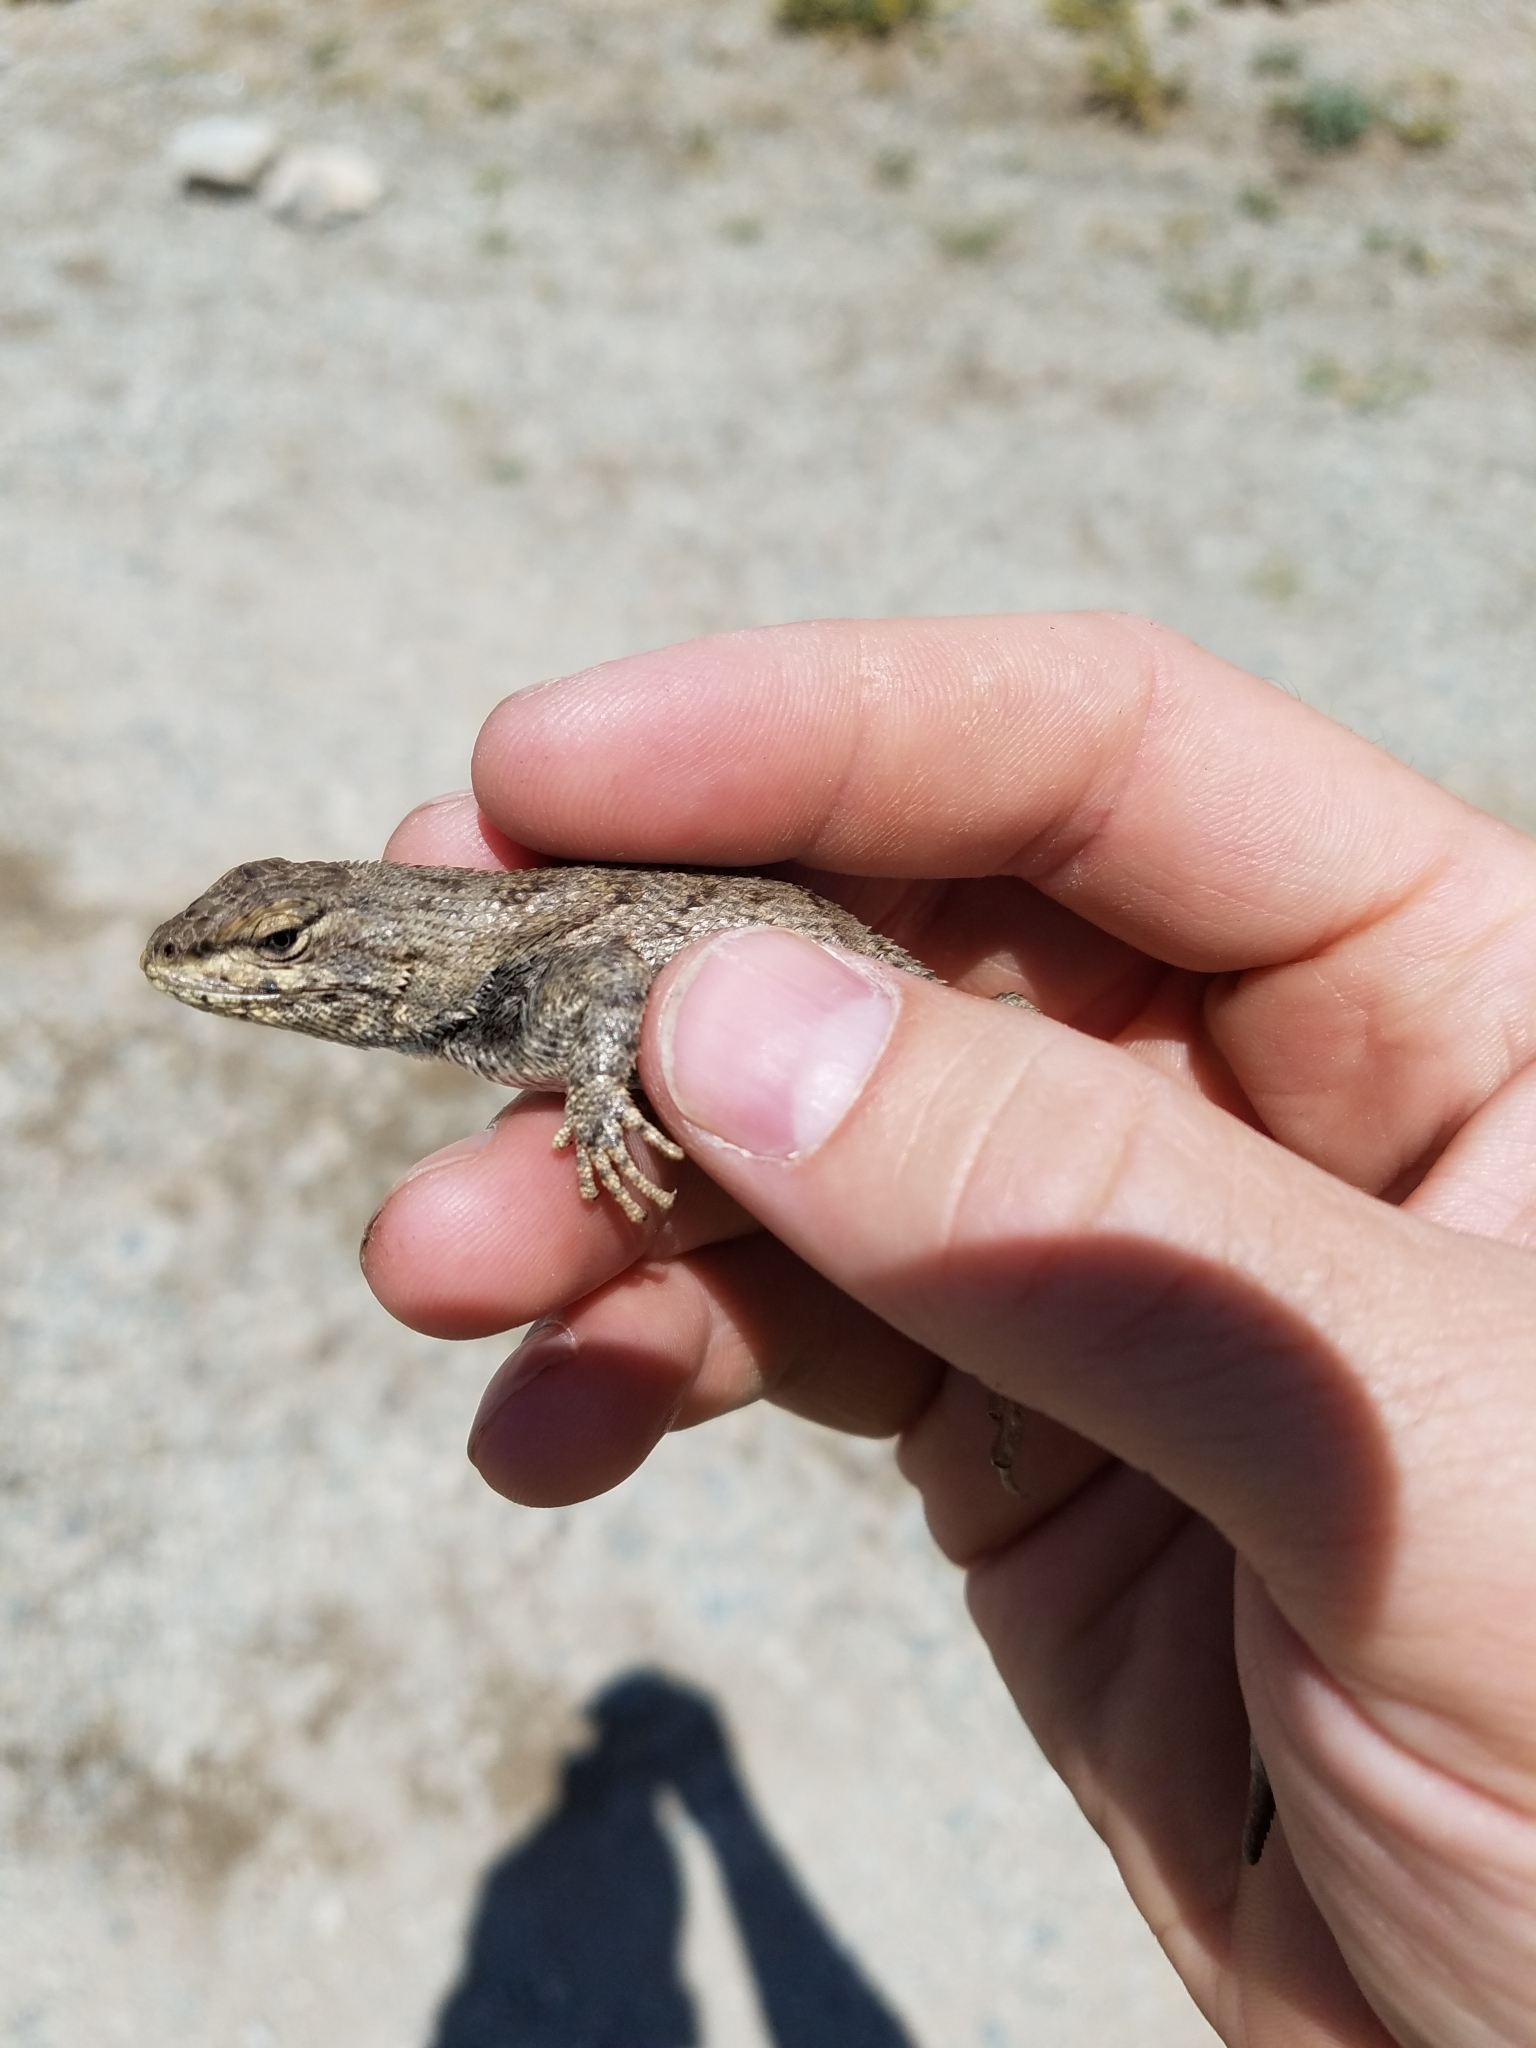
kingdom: Animalia
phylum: Chordata
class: Squamata
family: Phrynosomatidae
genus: Sceloporus
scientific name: Sceloporus tristichus
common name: Plateau fence lizard
